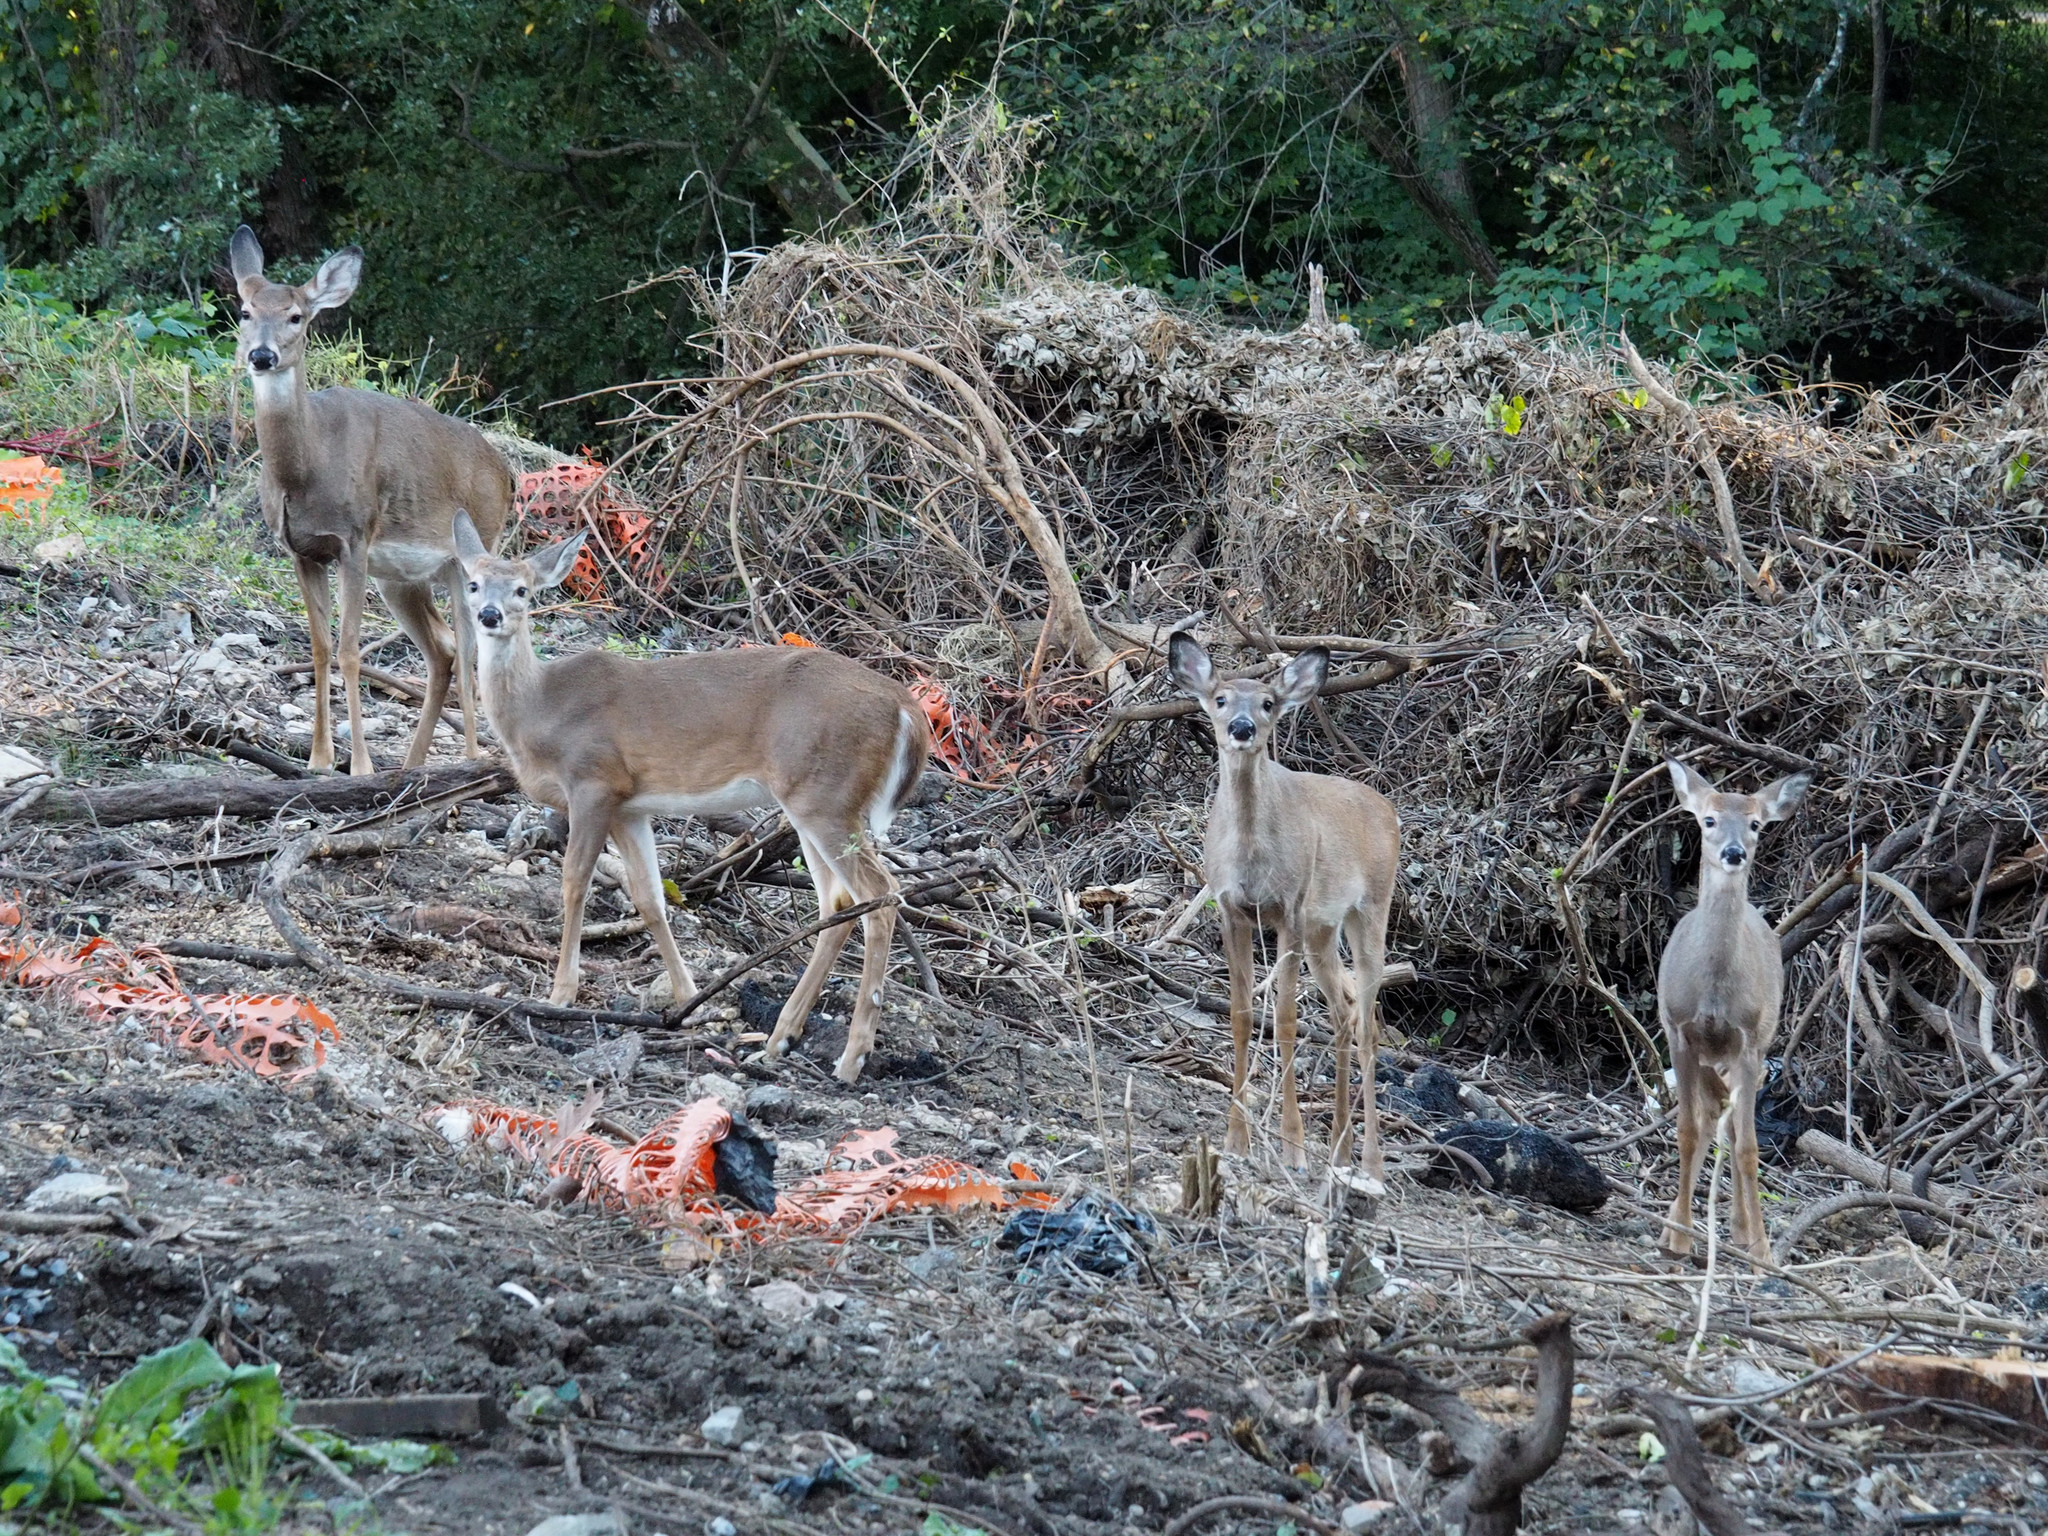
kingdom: Animalia
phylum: Chordata
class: Mammalia
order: Artiodactyla
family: Cervidae
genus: Odocoileus
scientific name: Odocoileus virginianus
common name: White-tailed deer
